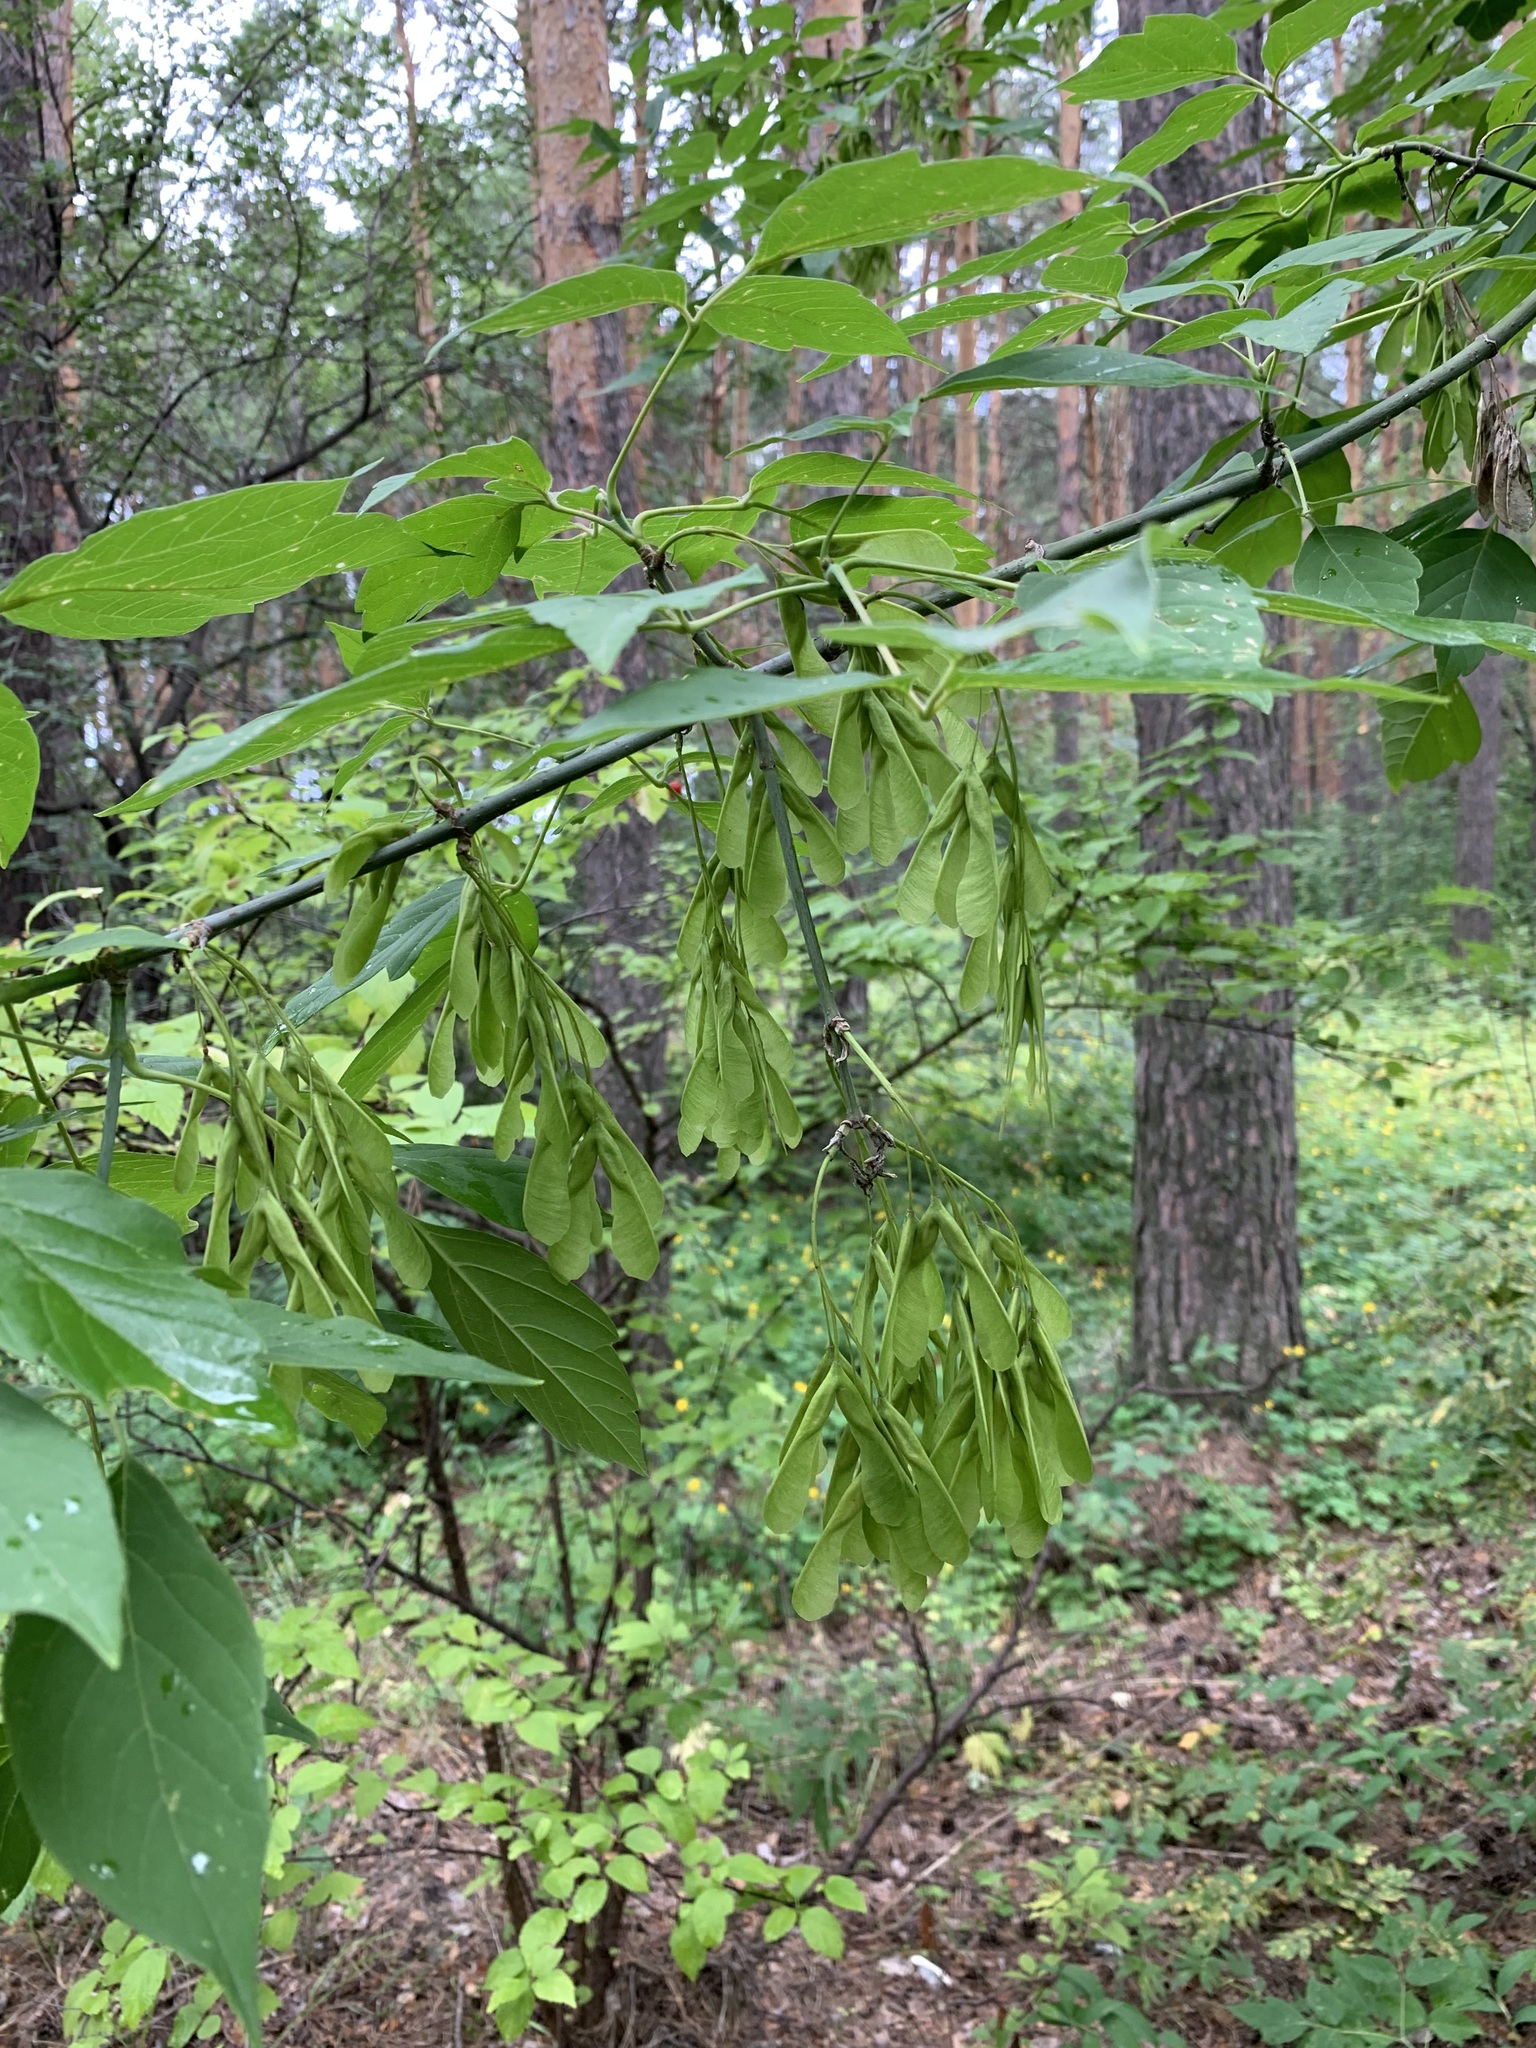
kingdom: Plantae
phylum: Tracheophyta
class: Magnoliopsida
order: Sapindales
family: Sapindaceae
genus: Acer
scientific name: Acer negundo
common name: Ashleaf maple
